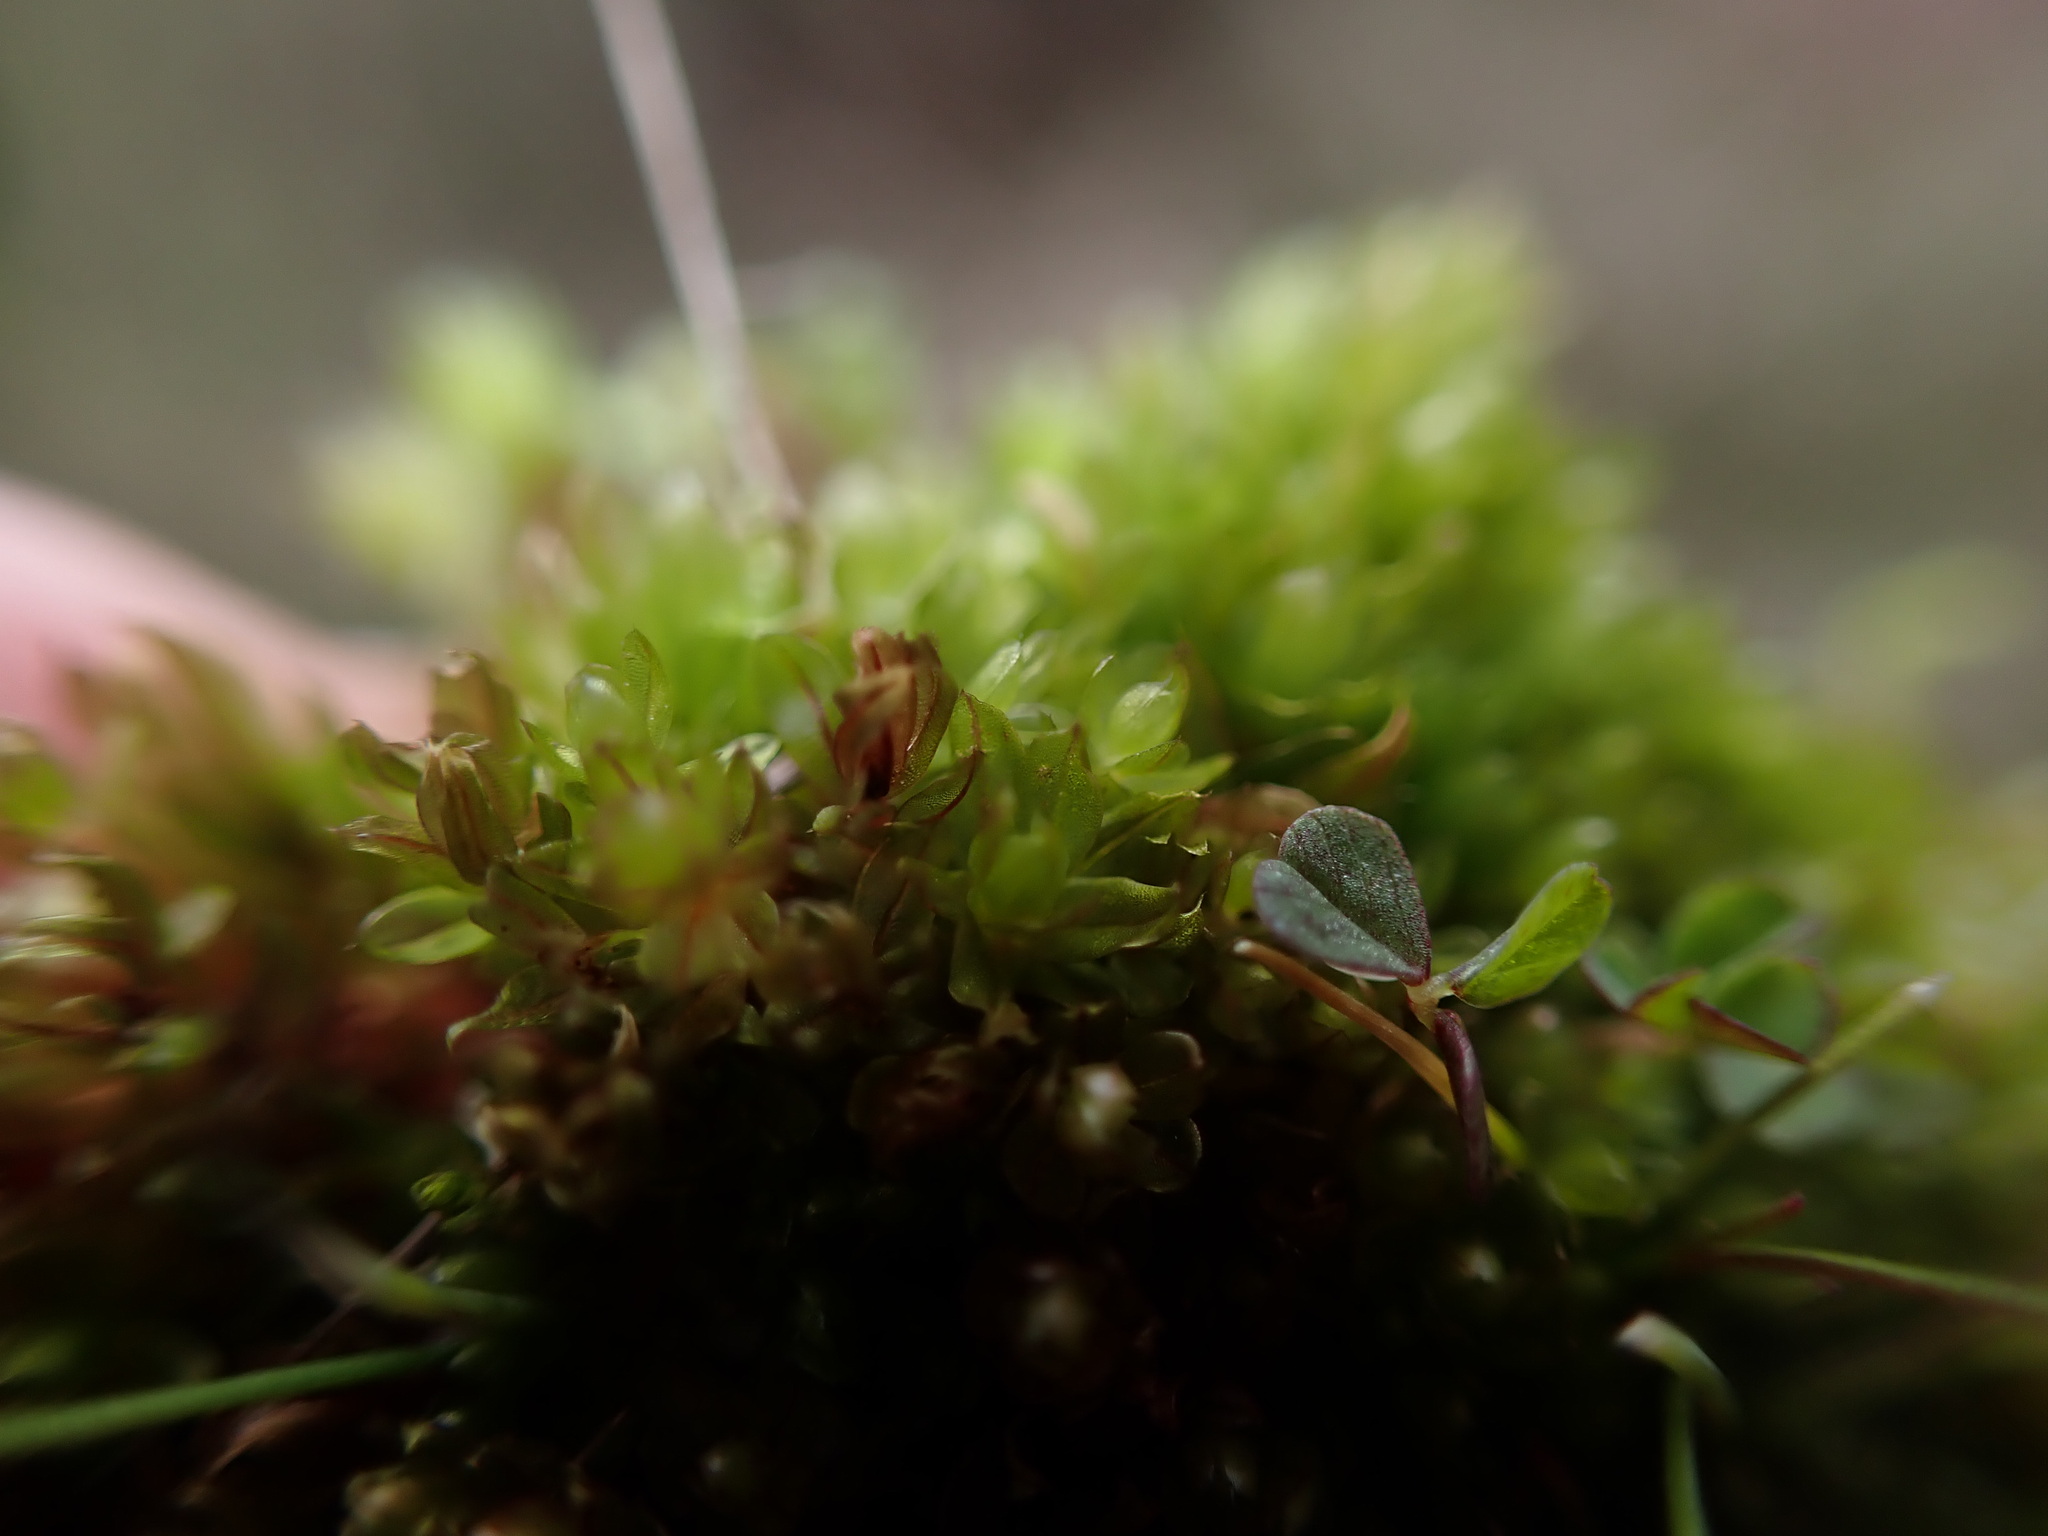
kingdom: Plantae
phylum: Bryophyta
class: Bryopsida
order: Bryales
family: Bryaceae
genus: Rosulabryum
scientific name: Rosulabryum capillare
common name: Capillary thread-moss
